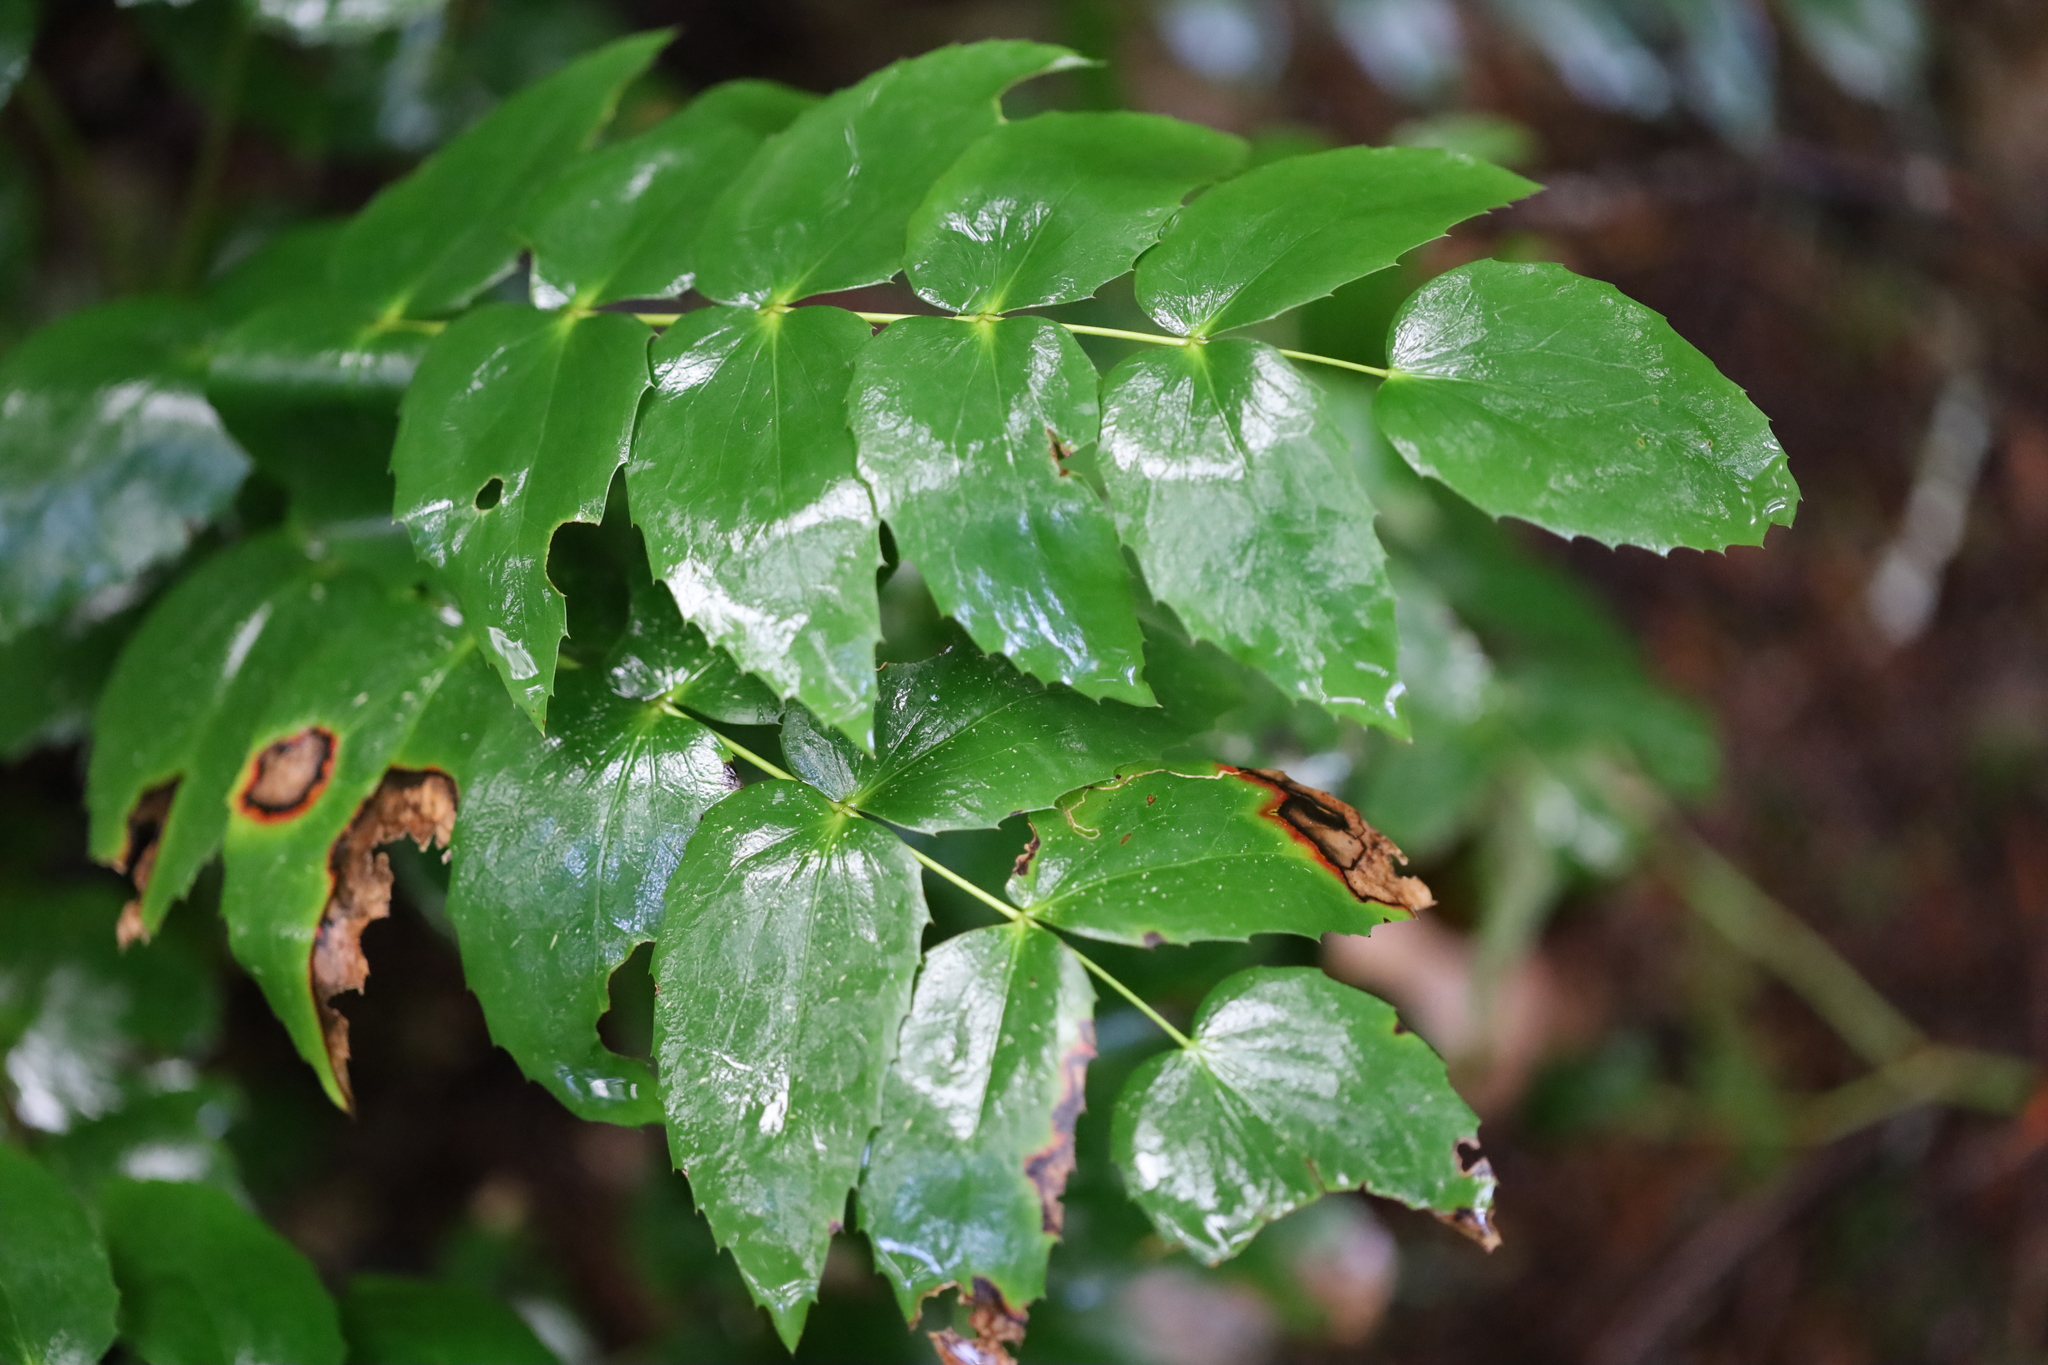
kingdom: Plantae
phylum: Tracheophyta
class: Magnoliopsida
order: Ranunculales
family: Berberidaceae
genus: Mahonia
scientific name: Mahonia nervosa
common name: Cascade oregon-grape
